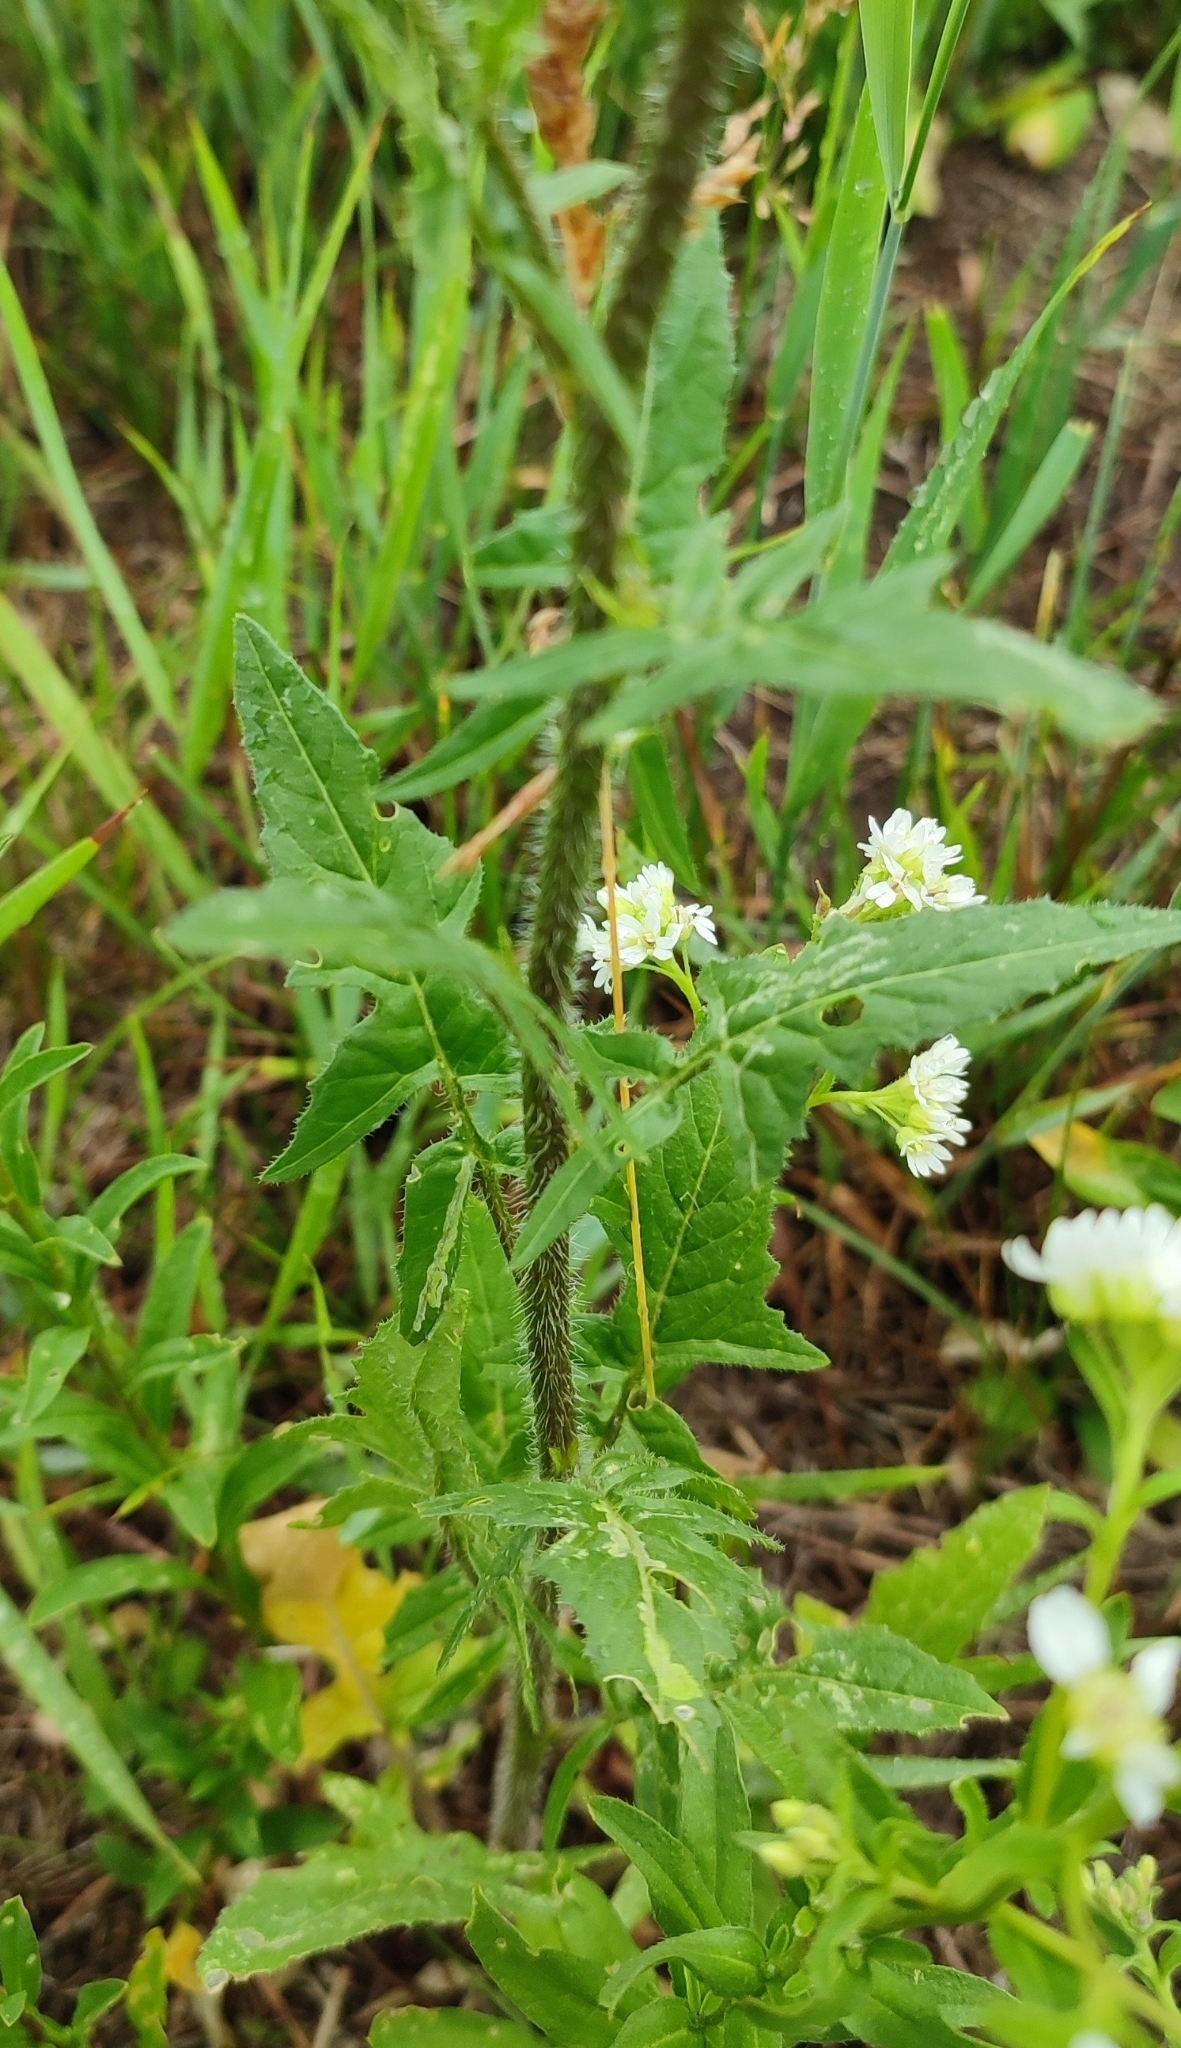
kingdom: Plantae
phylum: Tracheophyta
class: Magnoliopsida
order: Brassicales
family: Brassicaceae
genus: Sisymbrium
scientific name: Sisymbrium loeselii
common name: False london-rocket
